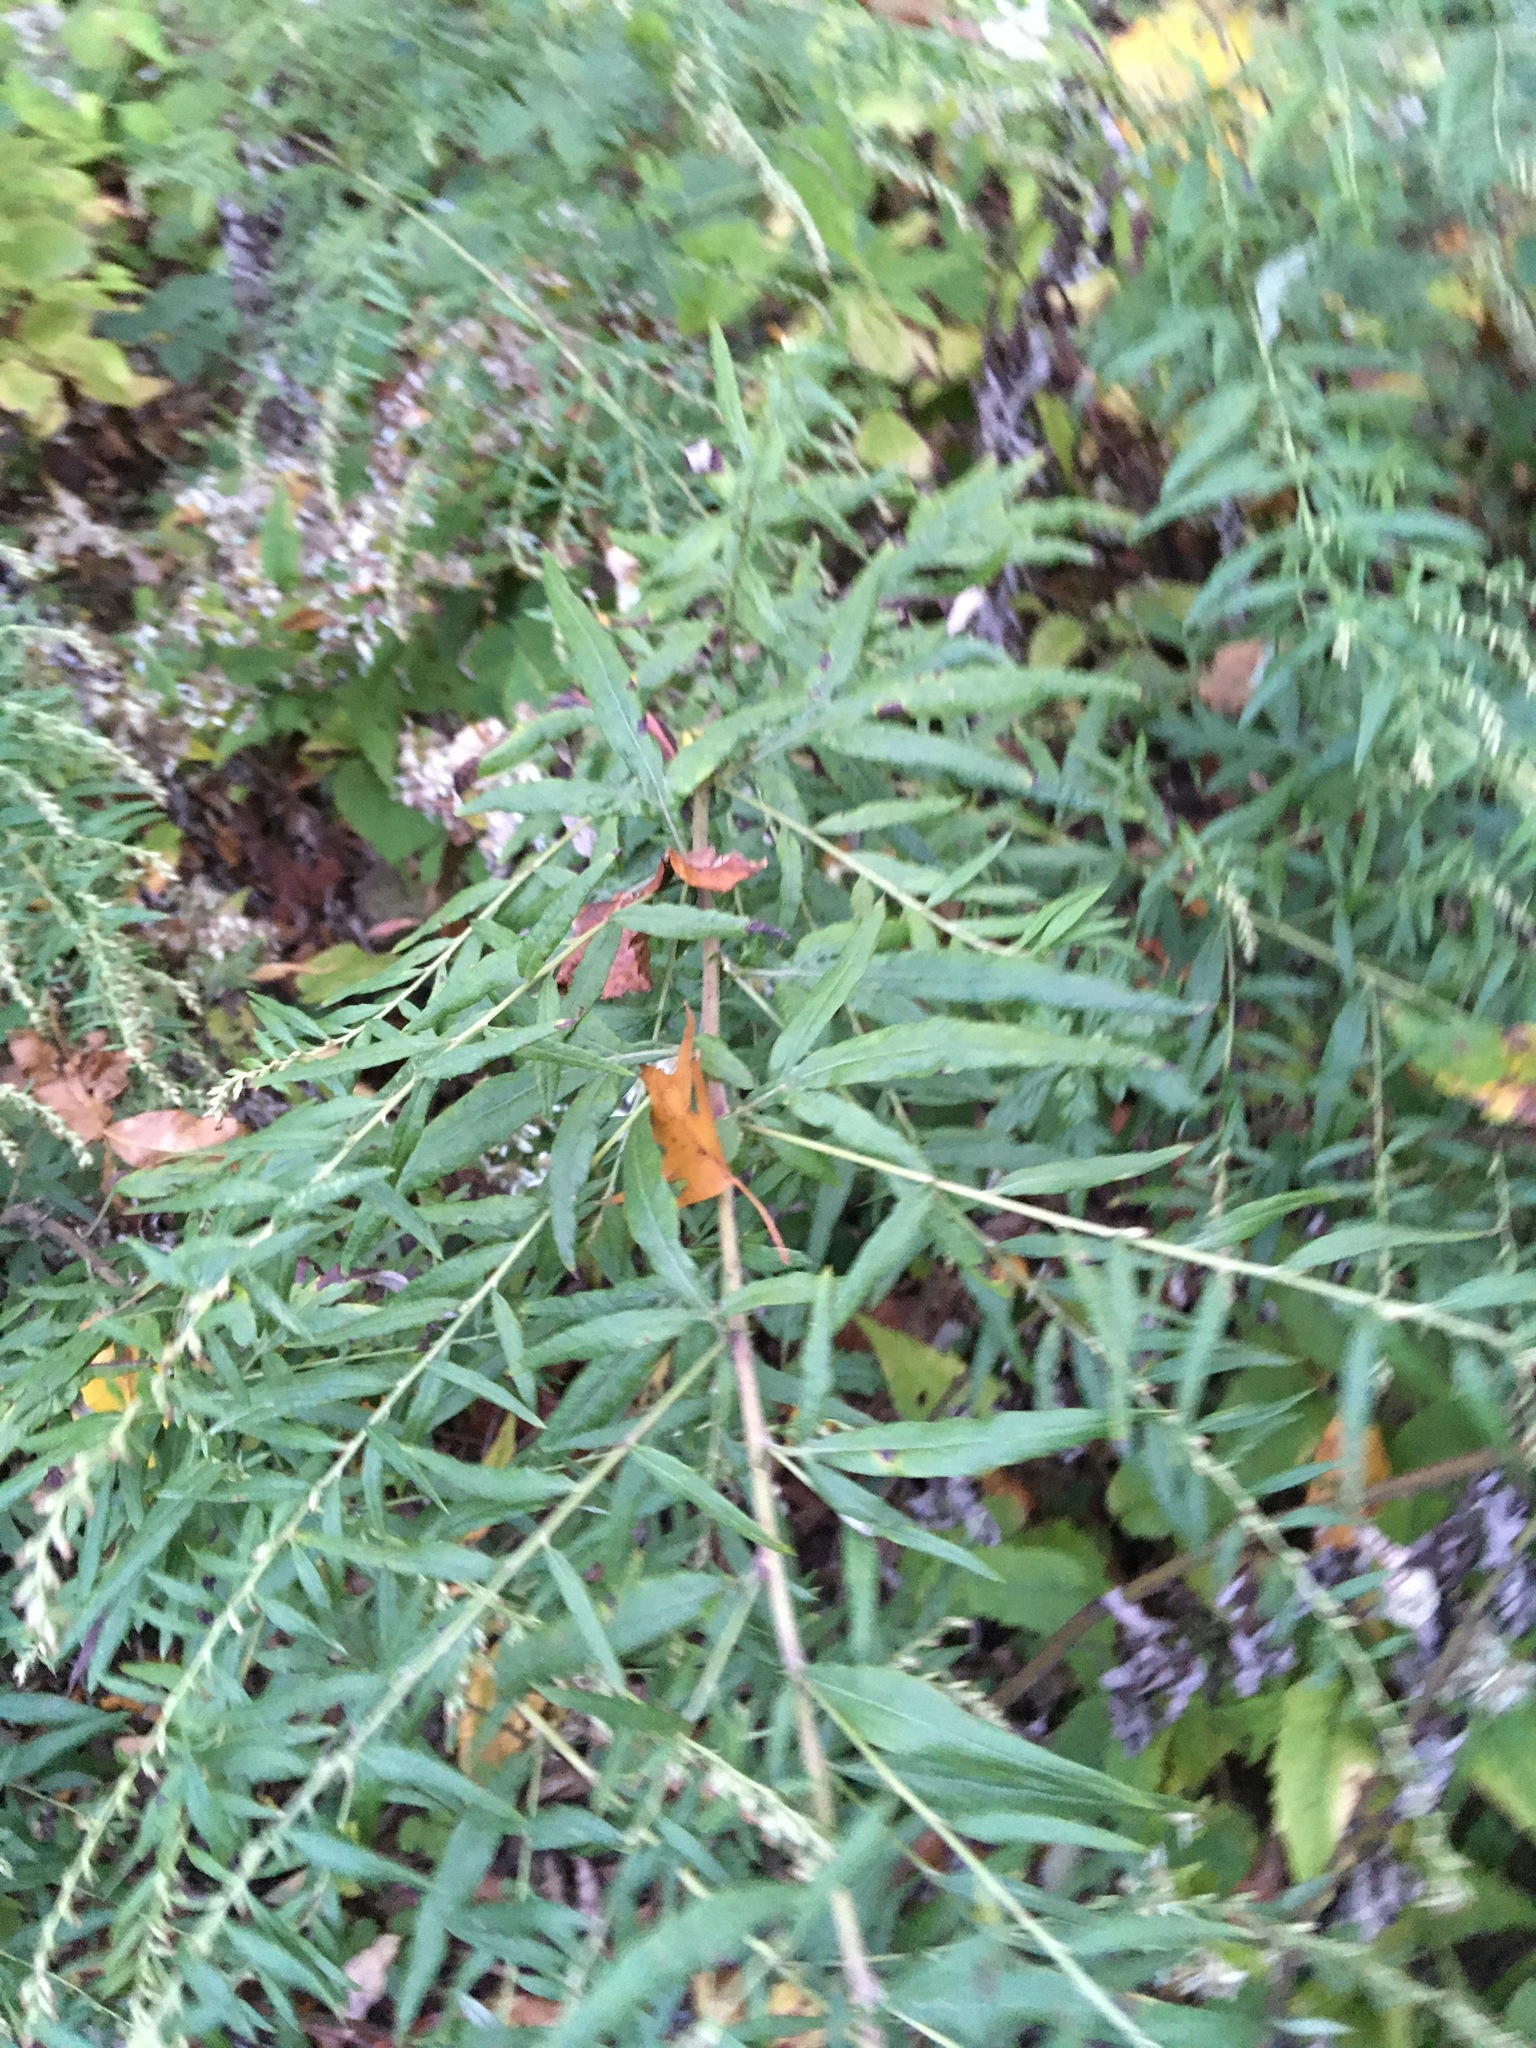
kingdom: Plantae
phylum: Tracheophyta
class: Magnoliopsida
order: Asterales
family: Asteraceae
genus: Artemisia
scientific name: Artemisia vulgaris
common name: Mugwort
